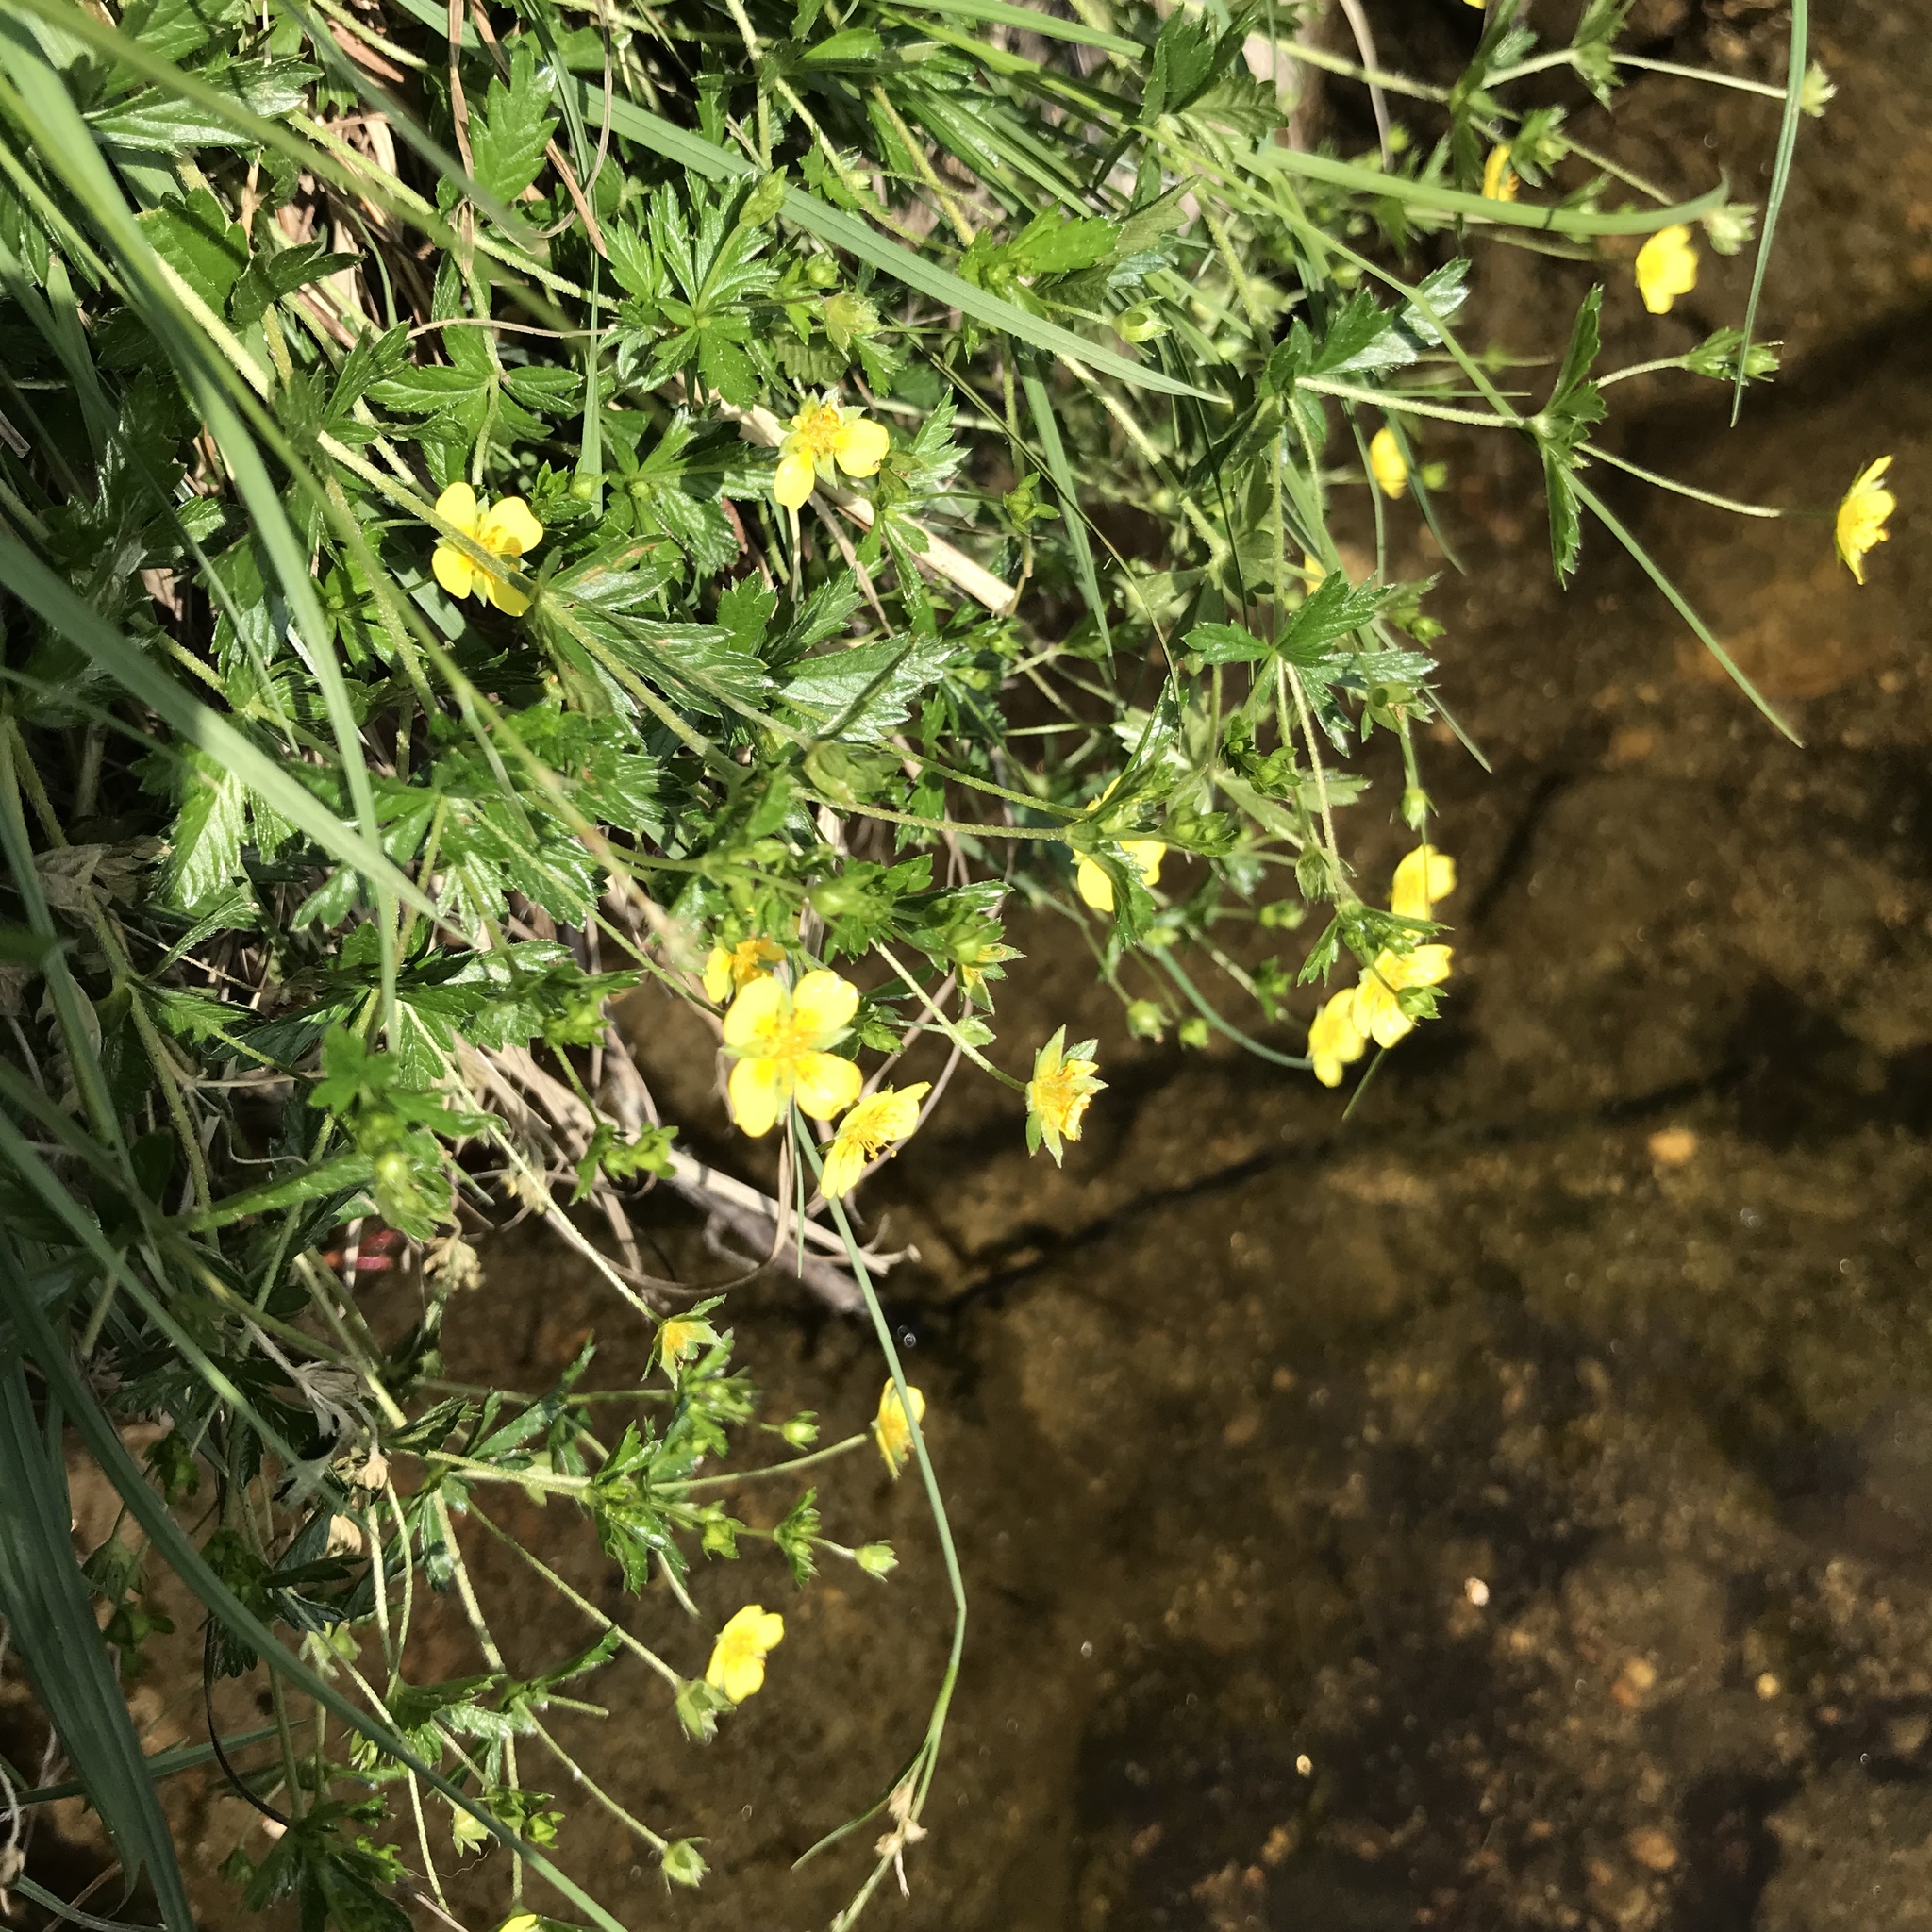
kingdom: Plantae
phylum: Tracheophyta
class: Magnoliopsida
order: Rosales
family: Rosaceae
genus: Potentilla
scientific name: Potentilla erecta
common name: Tormentil
